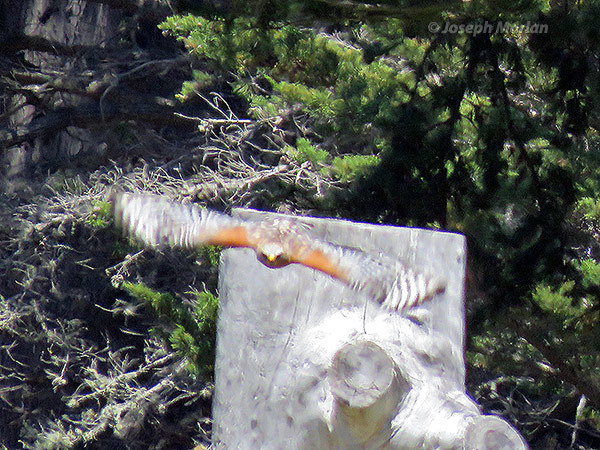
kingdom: Animalia
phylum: Chordata
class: Aves
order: Accipitriformes
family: Accipitridae
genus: Buteo
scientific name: Buteo lineatus
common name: Red-shouldered hawk
